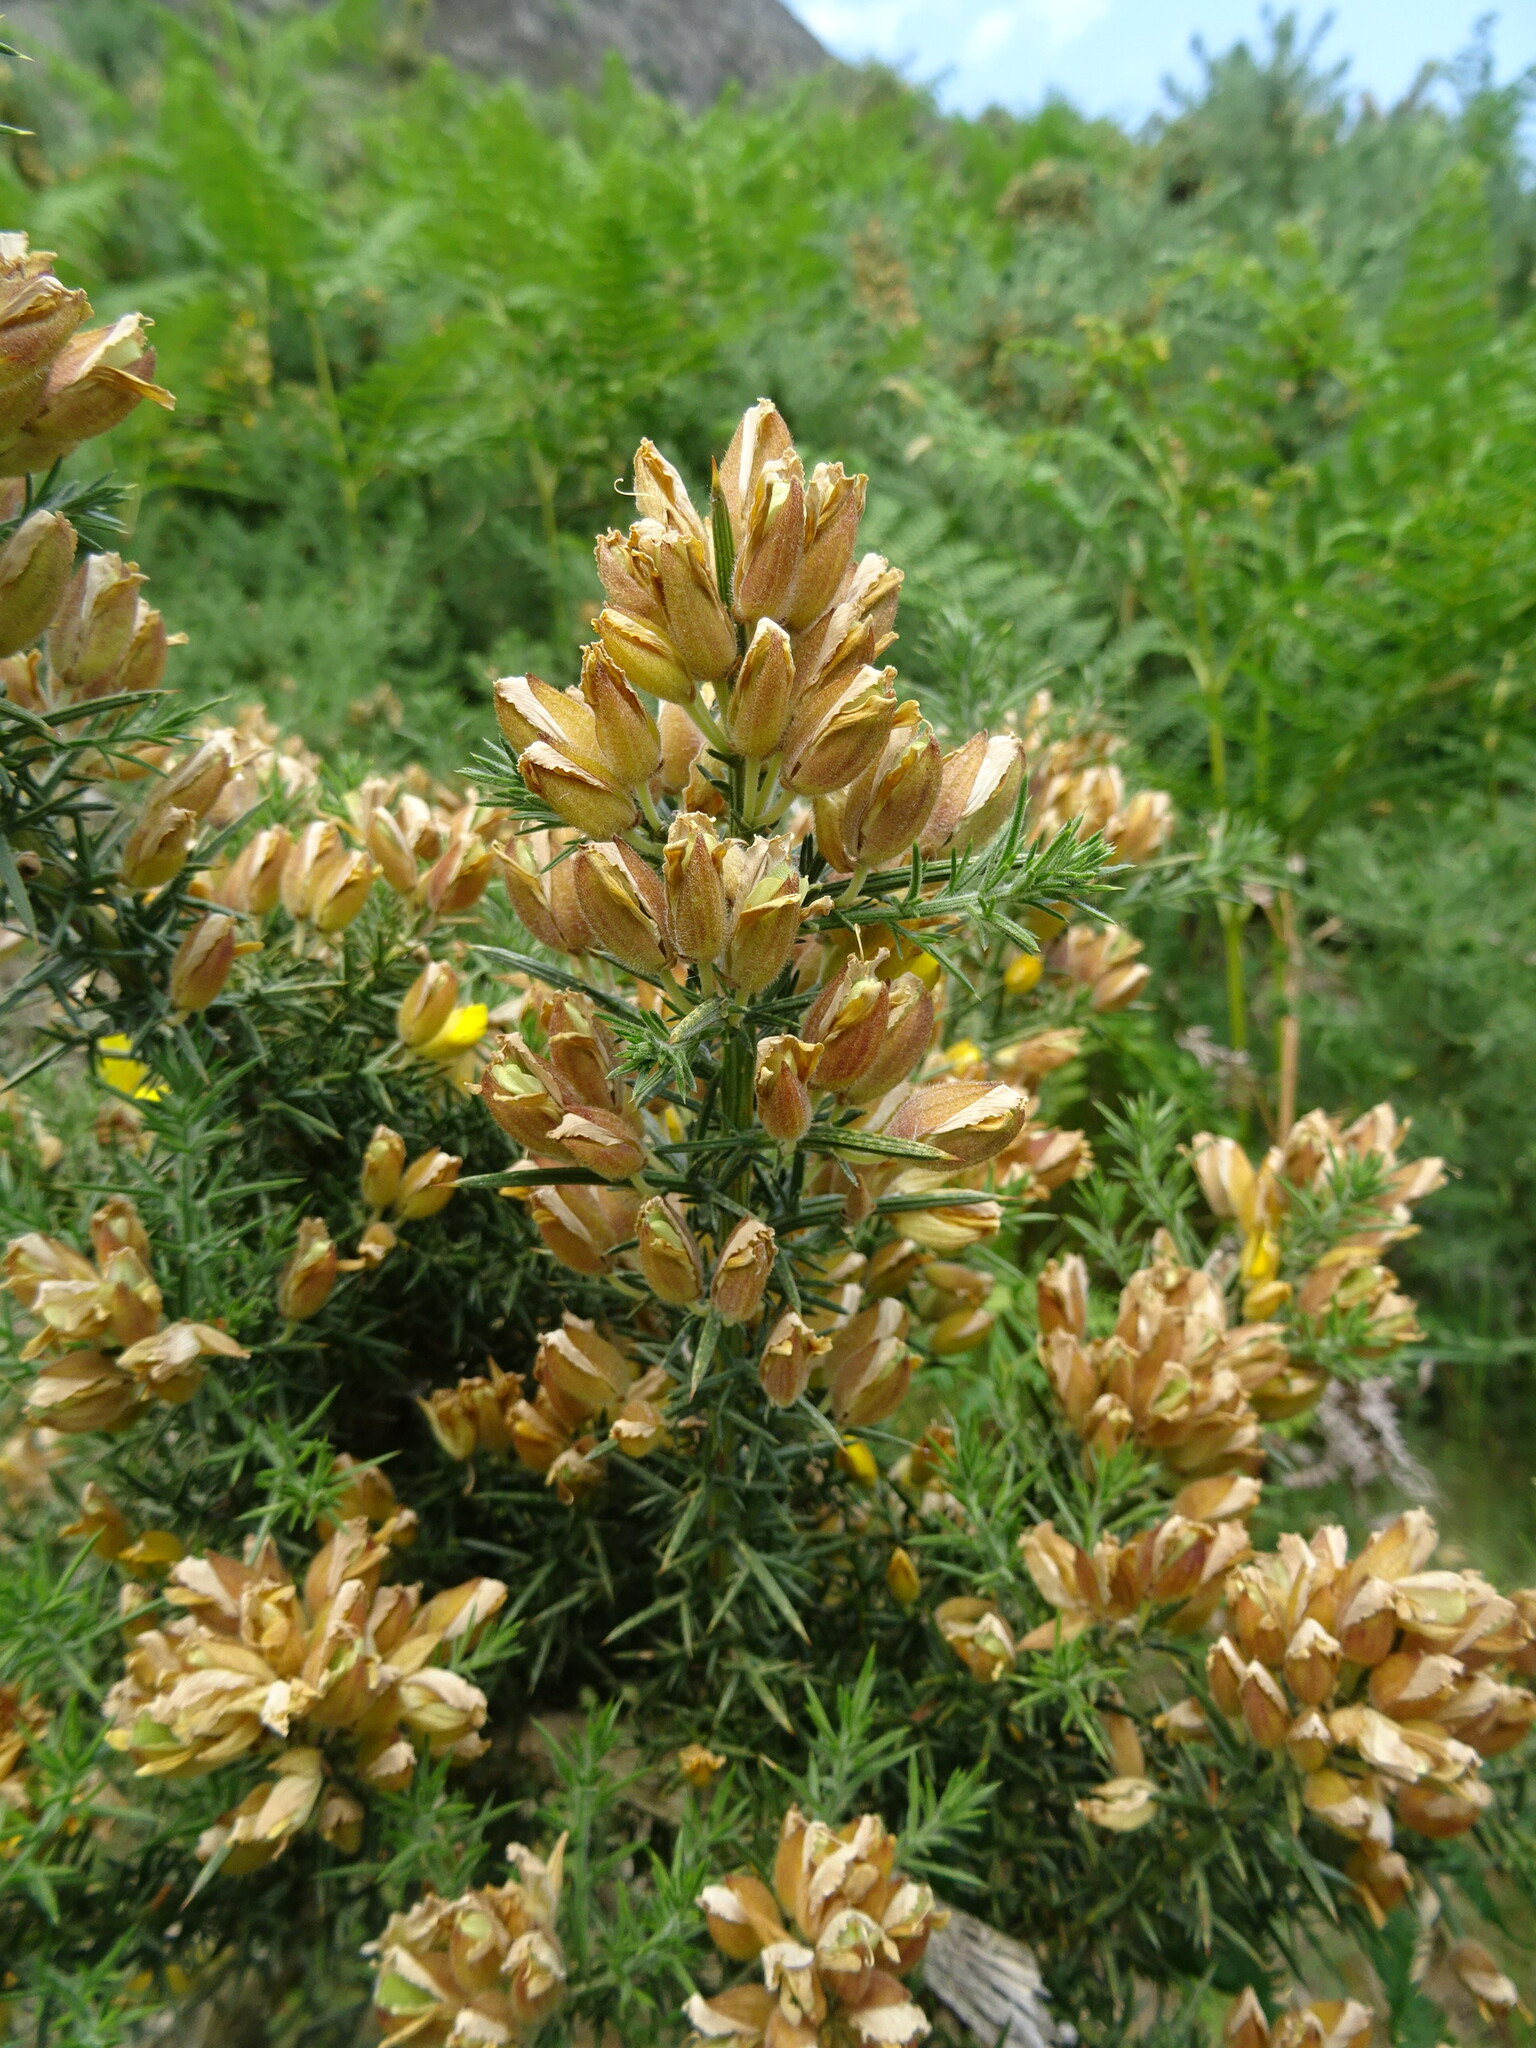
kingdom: Plantae
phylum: Tracheophyta
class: Magnoliopsida
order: Fabales
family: Fabaceae
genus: Ulex
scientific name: Ulex europaeus
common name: Common gorse
